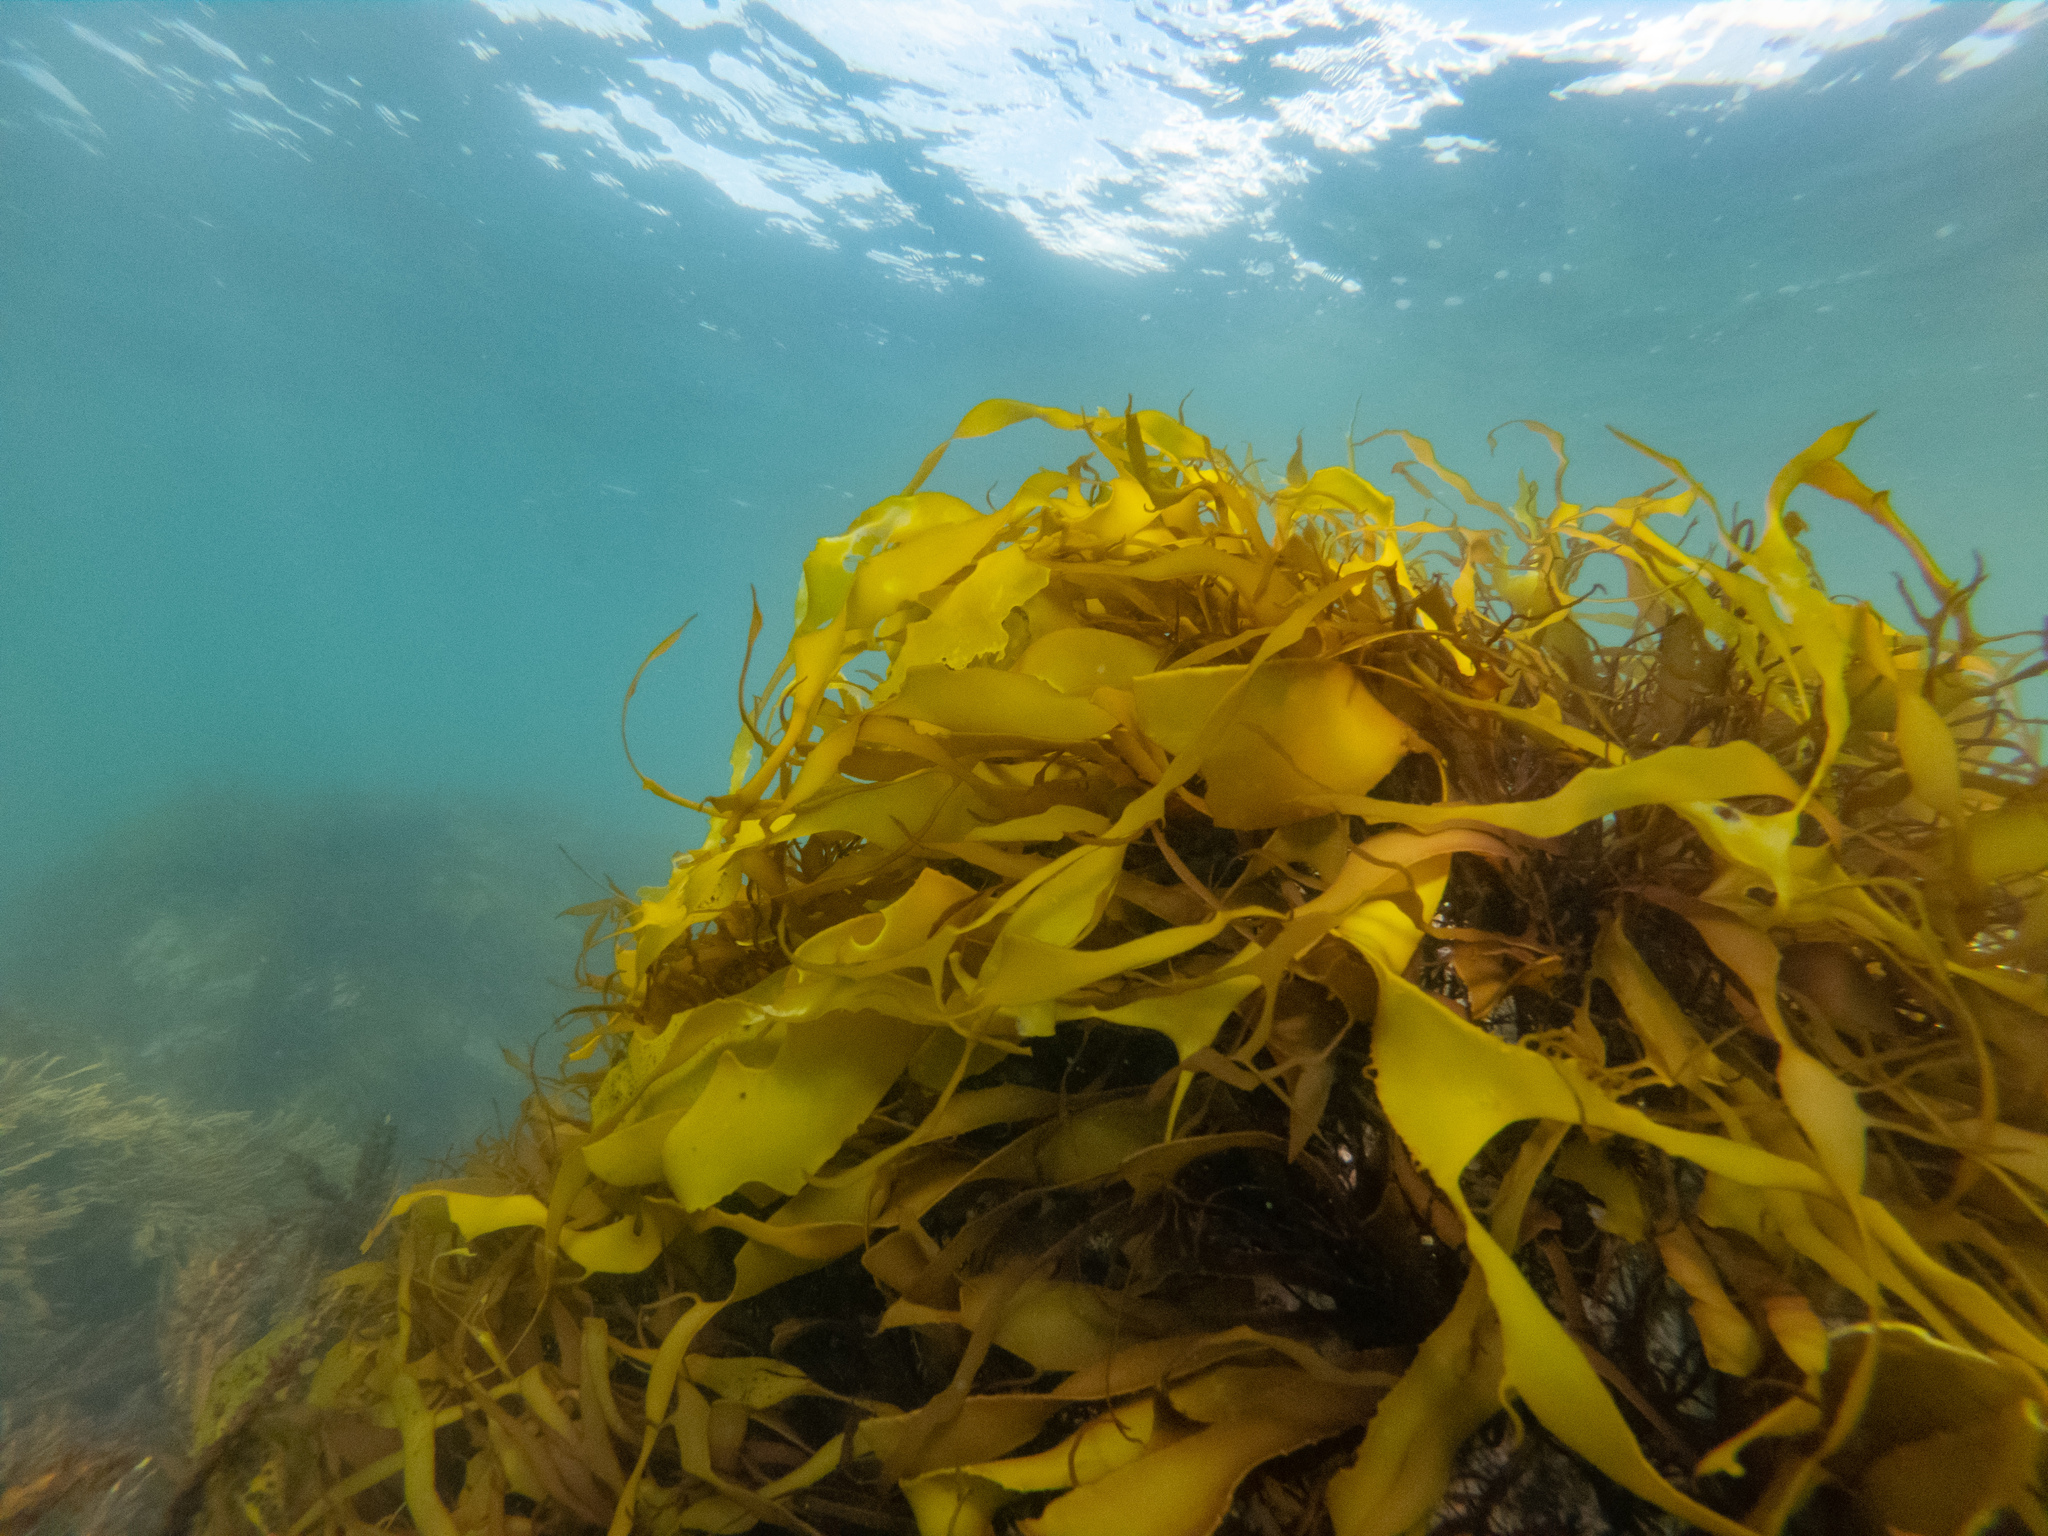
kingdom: Chromista
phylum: Ochrophyta
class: Phaeophyceae
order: Dictyotales
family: Dictyotaceae
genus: Dictyota
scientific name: Dictyota kunthii
